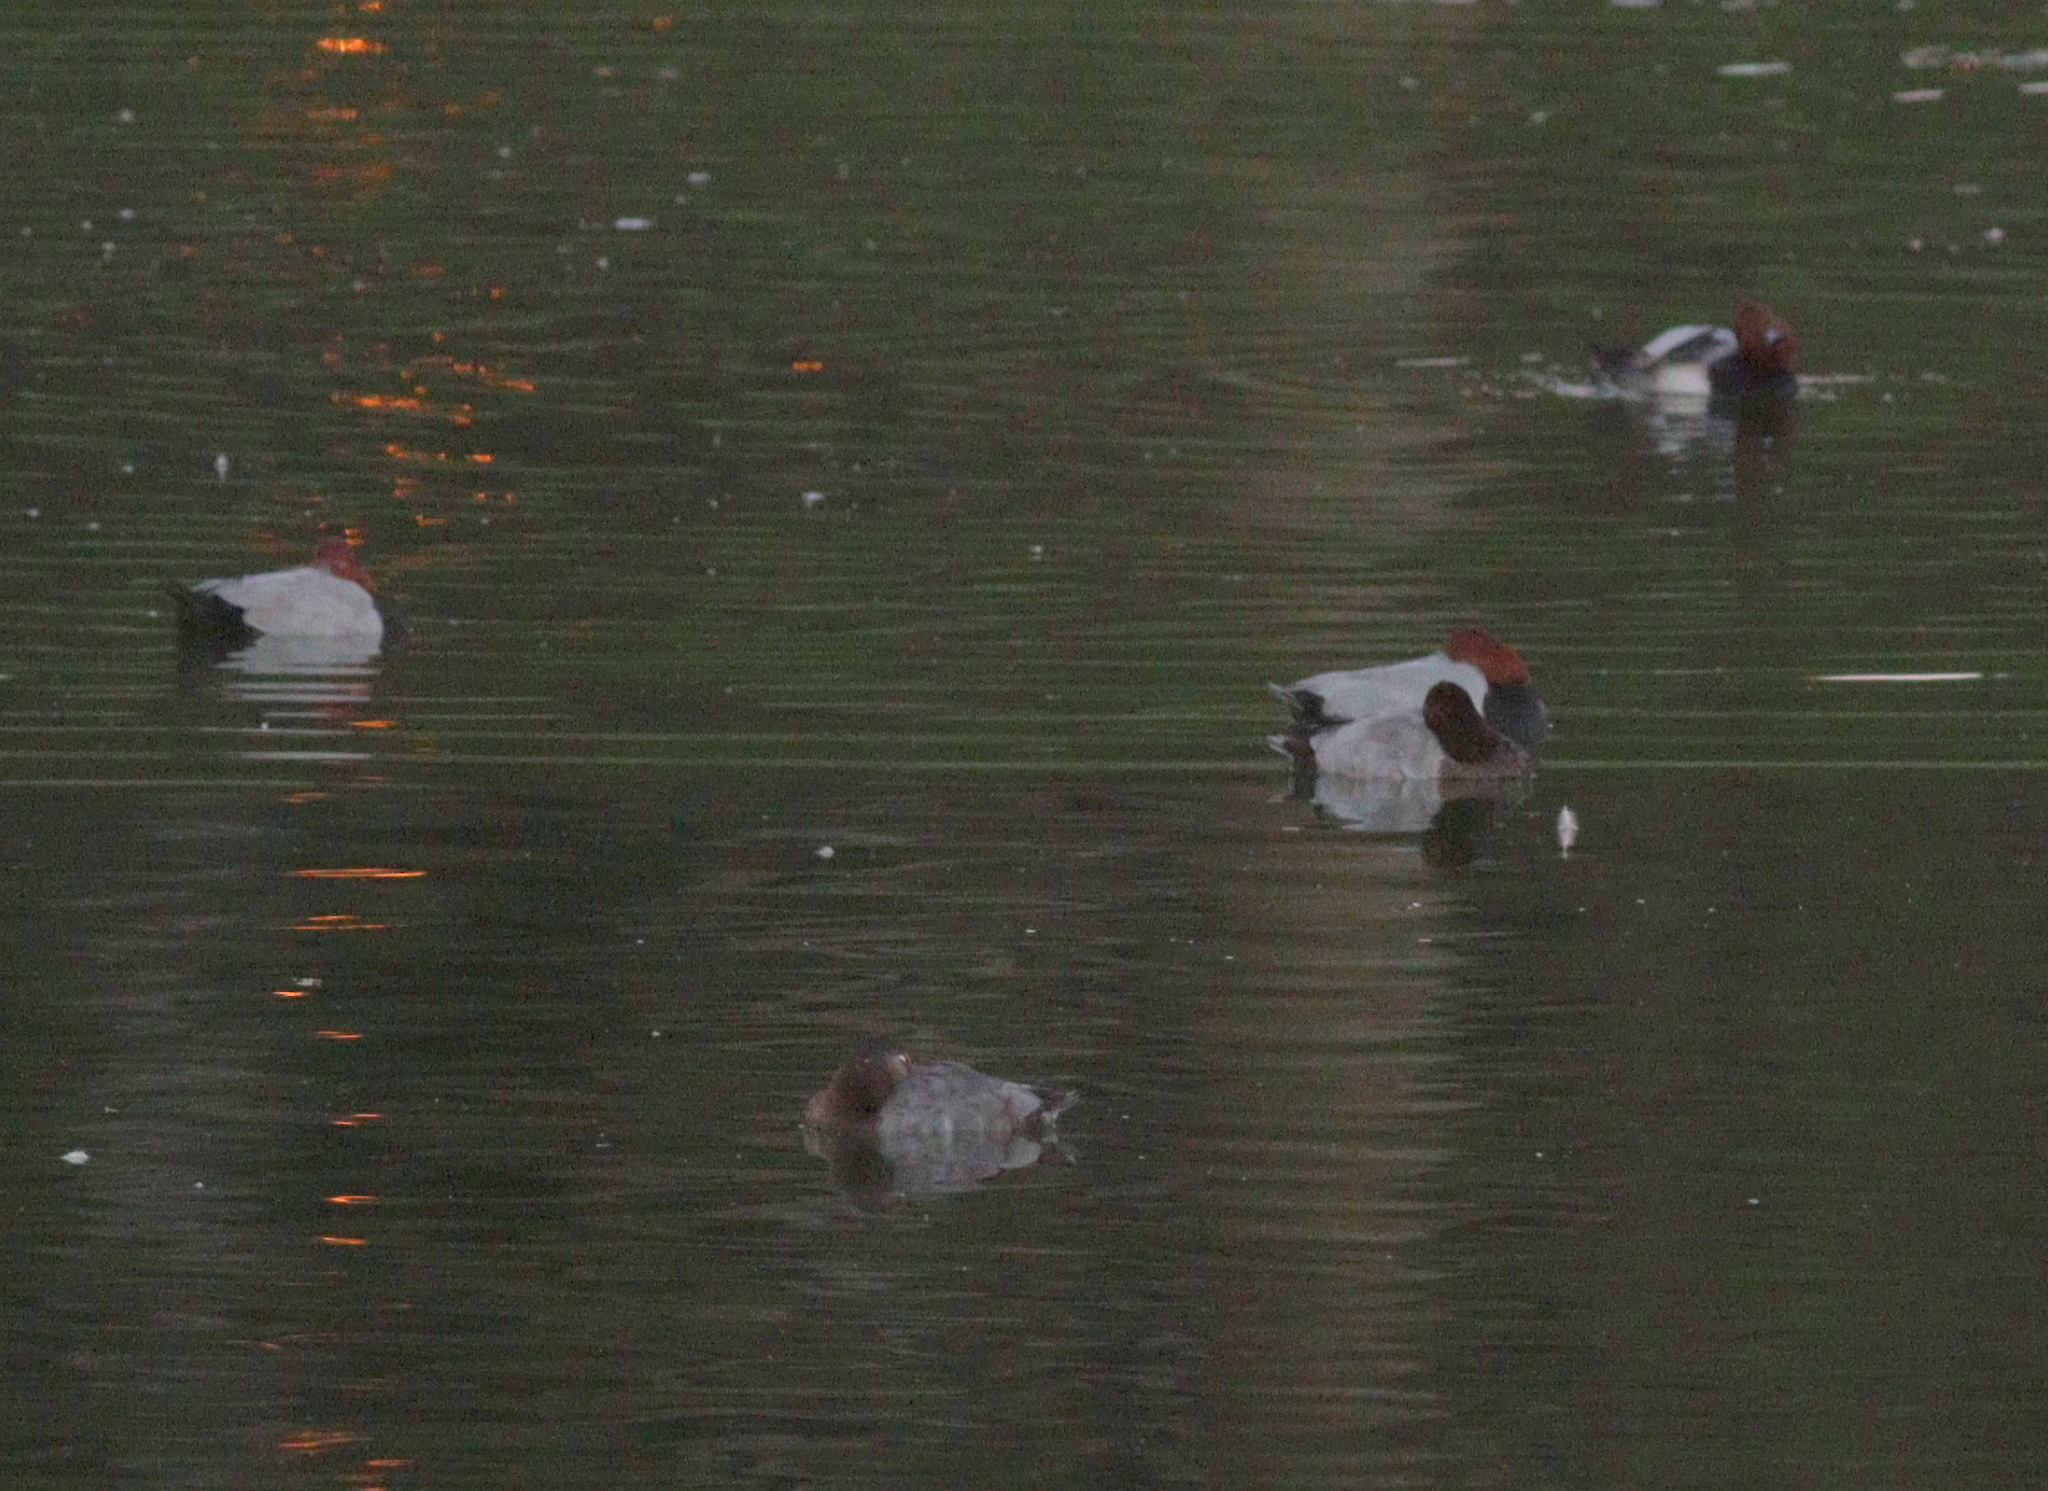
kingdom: Animalia
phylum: Chordata
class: Aves
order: Anseriformes
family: Anatidae
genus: Aythya
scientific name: Aythya ferina
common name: Common pochard
